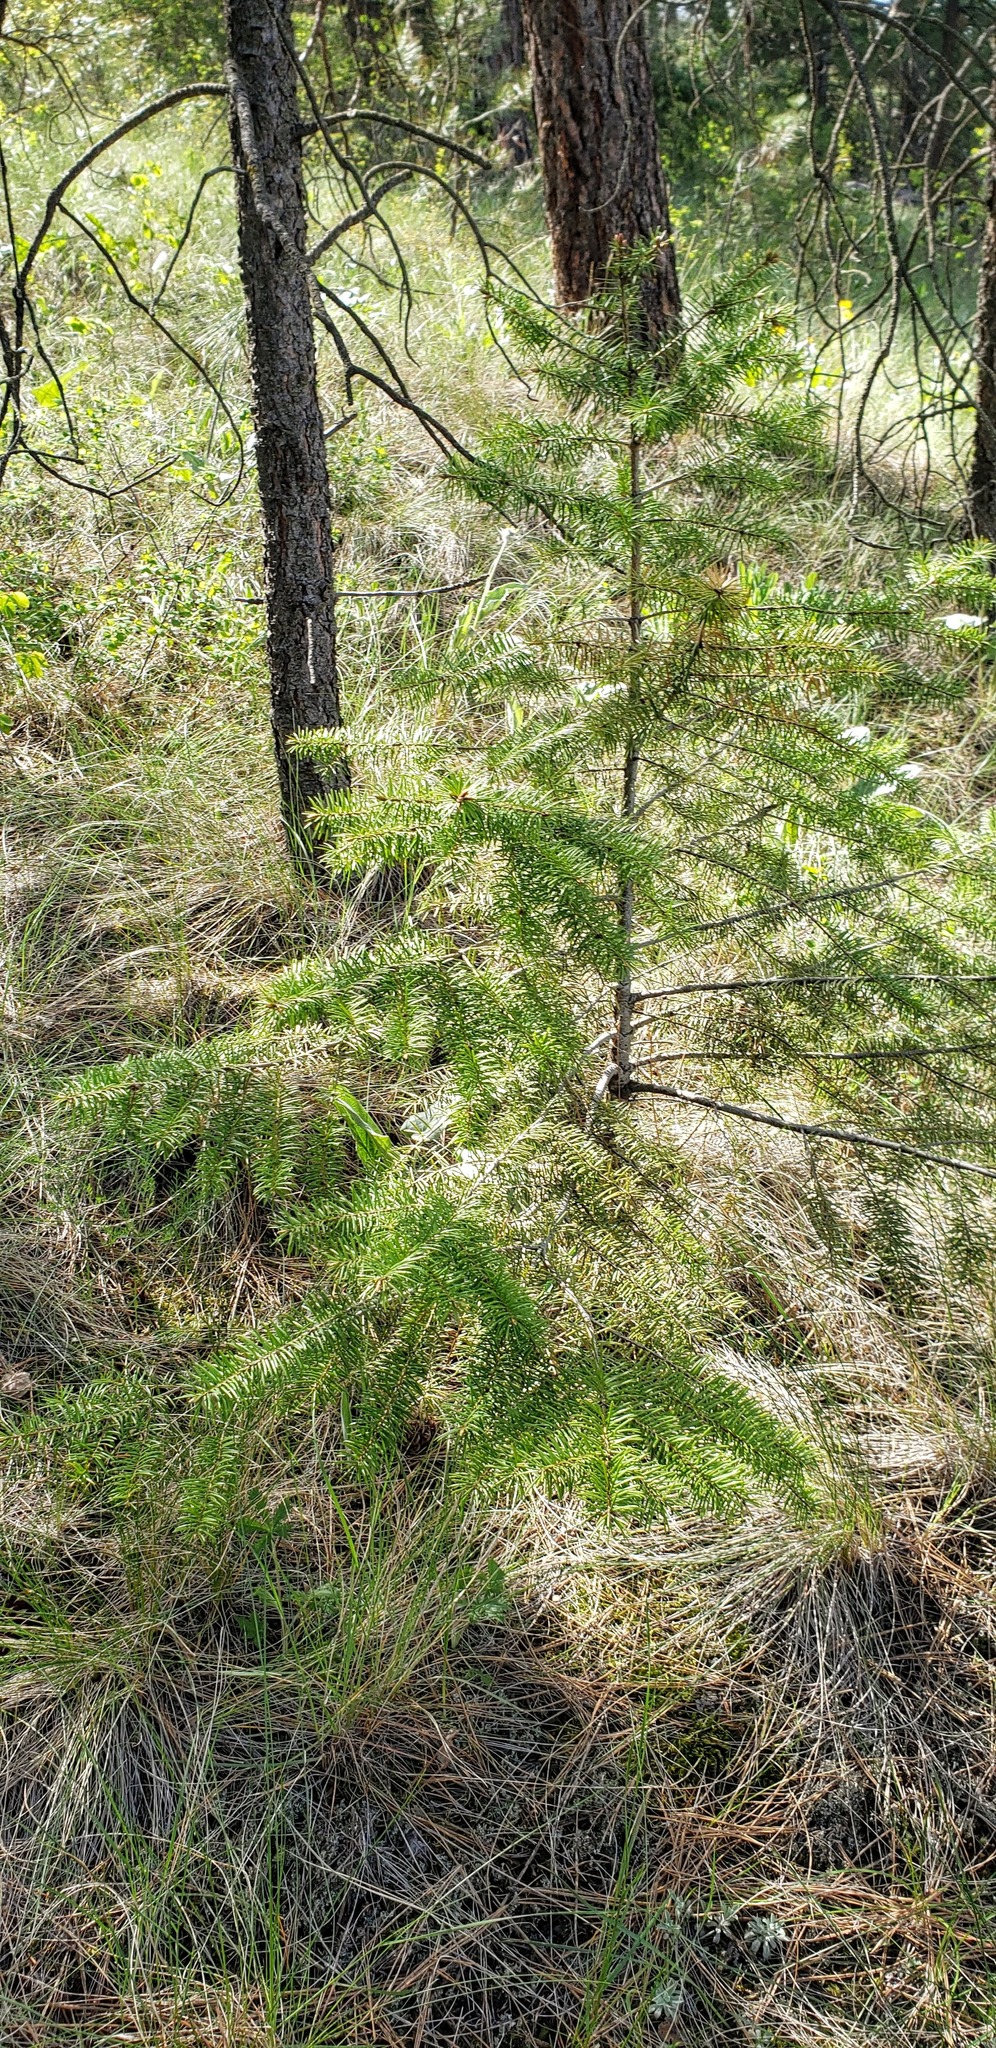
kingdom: Plantae
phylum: Tracheophyta
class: Pinopsida
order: Pinales
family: Pinaceae
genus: Pseudotsuga
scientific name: Pseudotsuga menziesii
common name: Douglas fir
